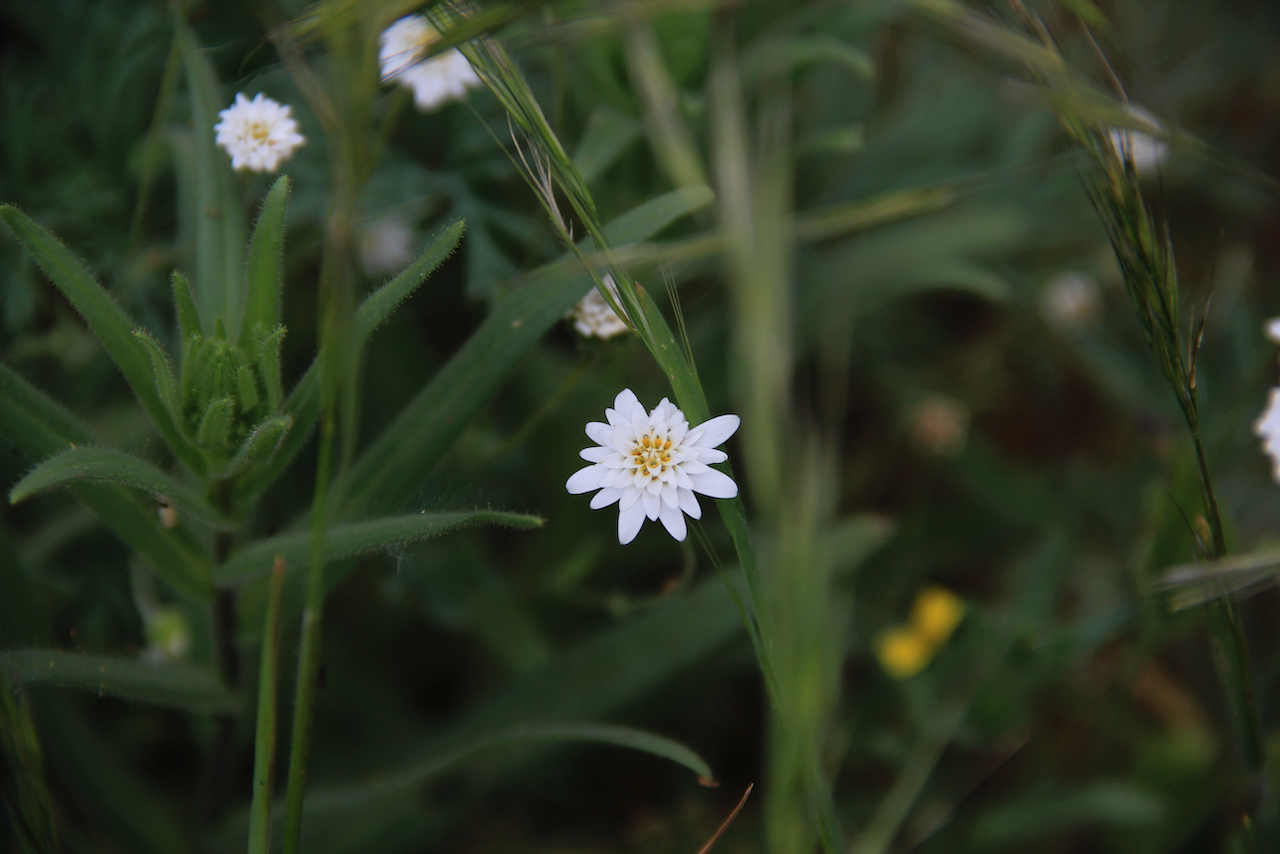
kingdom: Plantae
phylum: Tracheophyta
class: Magnoliopsida
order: Asterales
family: Asteraceae
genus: Moscharia
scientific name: Moscharia pinnatifida
